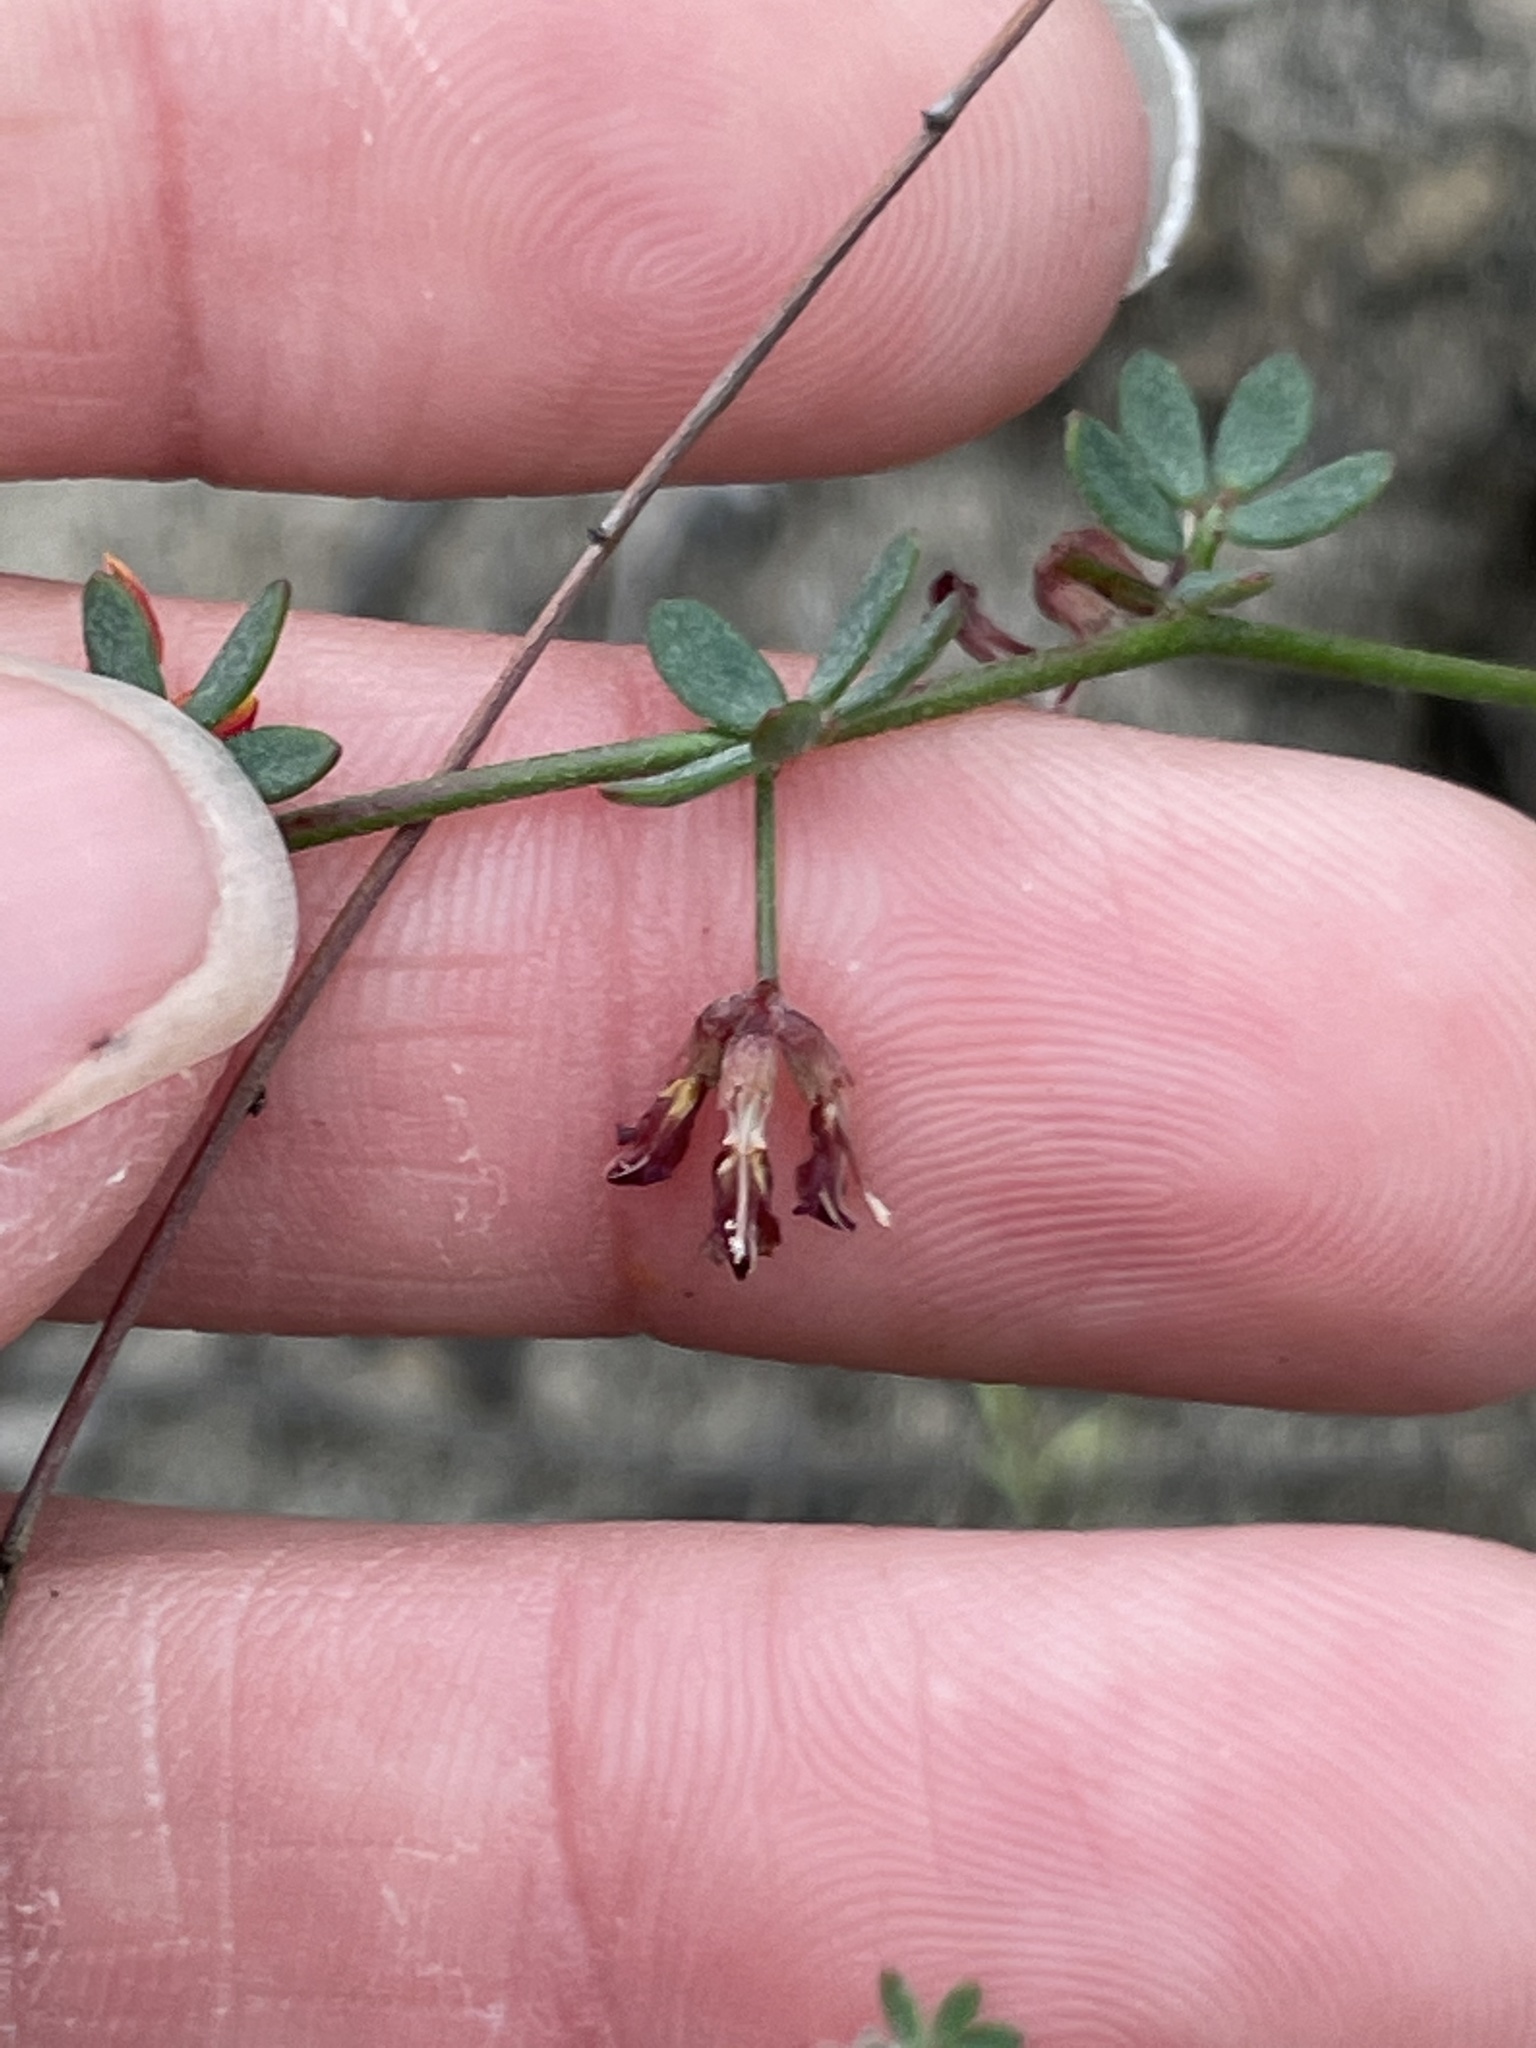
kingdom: Plantae
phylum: Tracheophyta
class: Magnoliopsida
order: Fabales
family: Fabaceae
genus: Acmispon
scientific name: Acmispon prostratus
